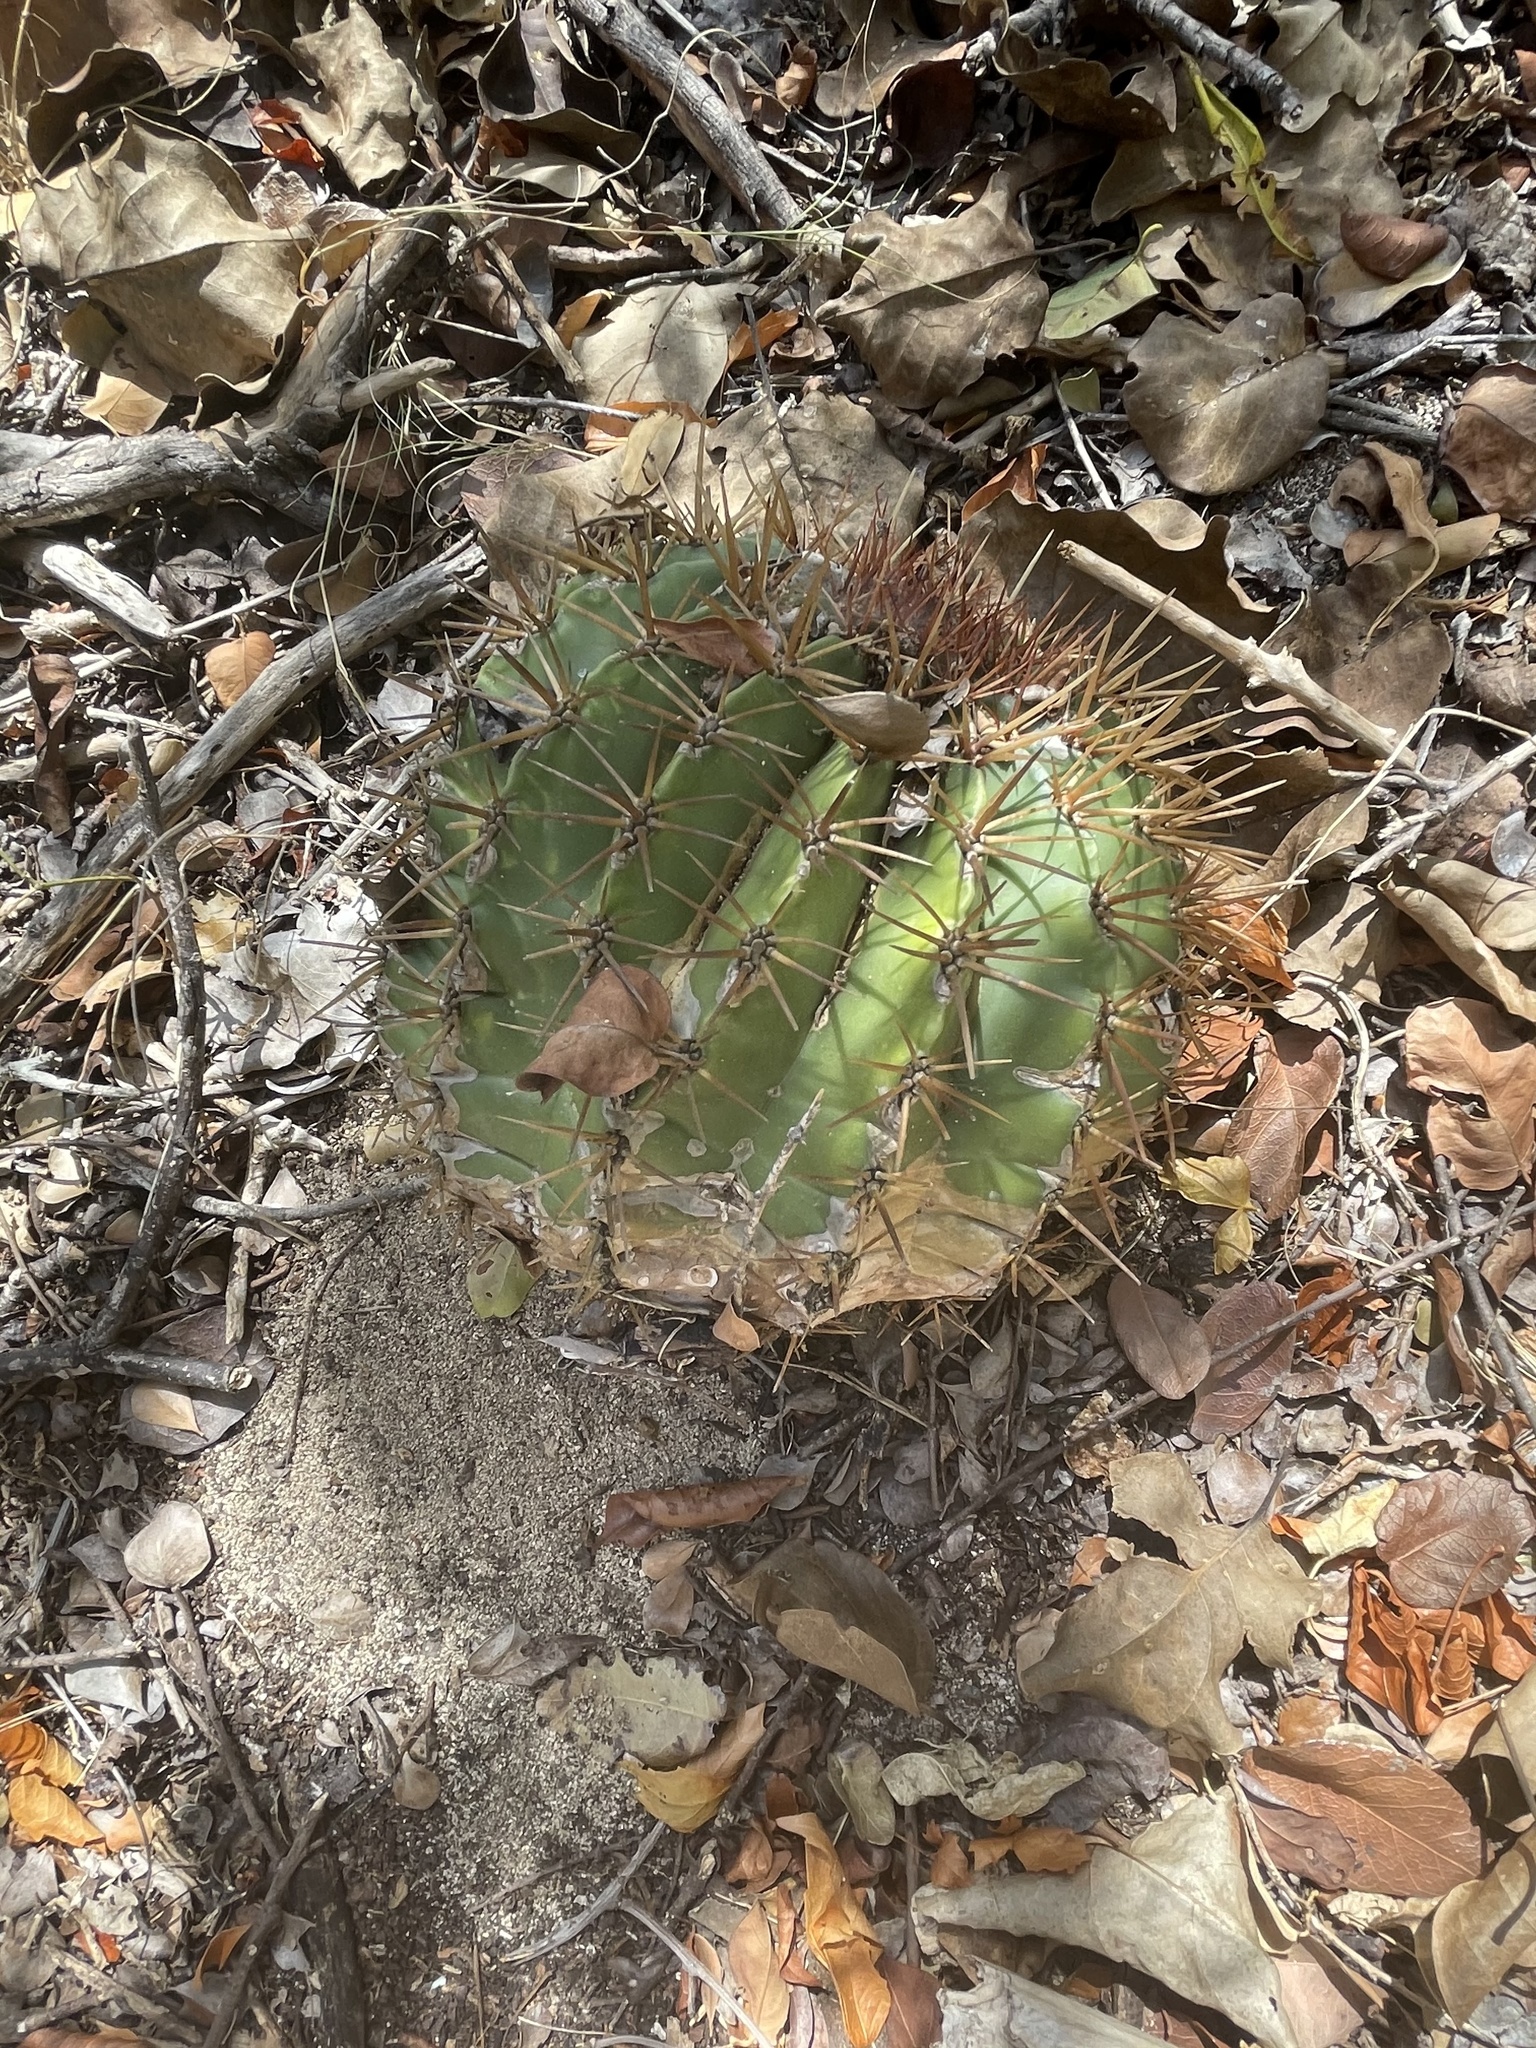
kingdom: Plantae
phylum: Tracheophyta
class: Magnoliopsida
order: Caryophyllales
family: Cactaceae
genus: Melocactus
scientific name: Melocactus intortus
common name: Barrel cactus
